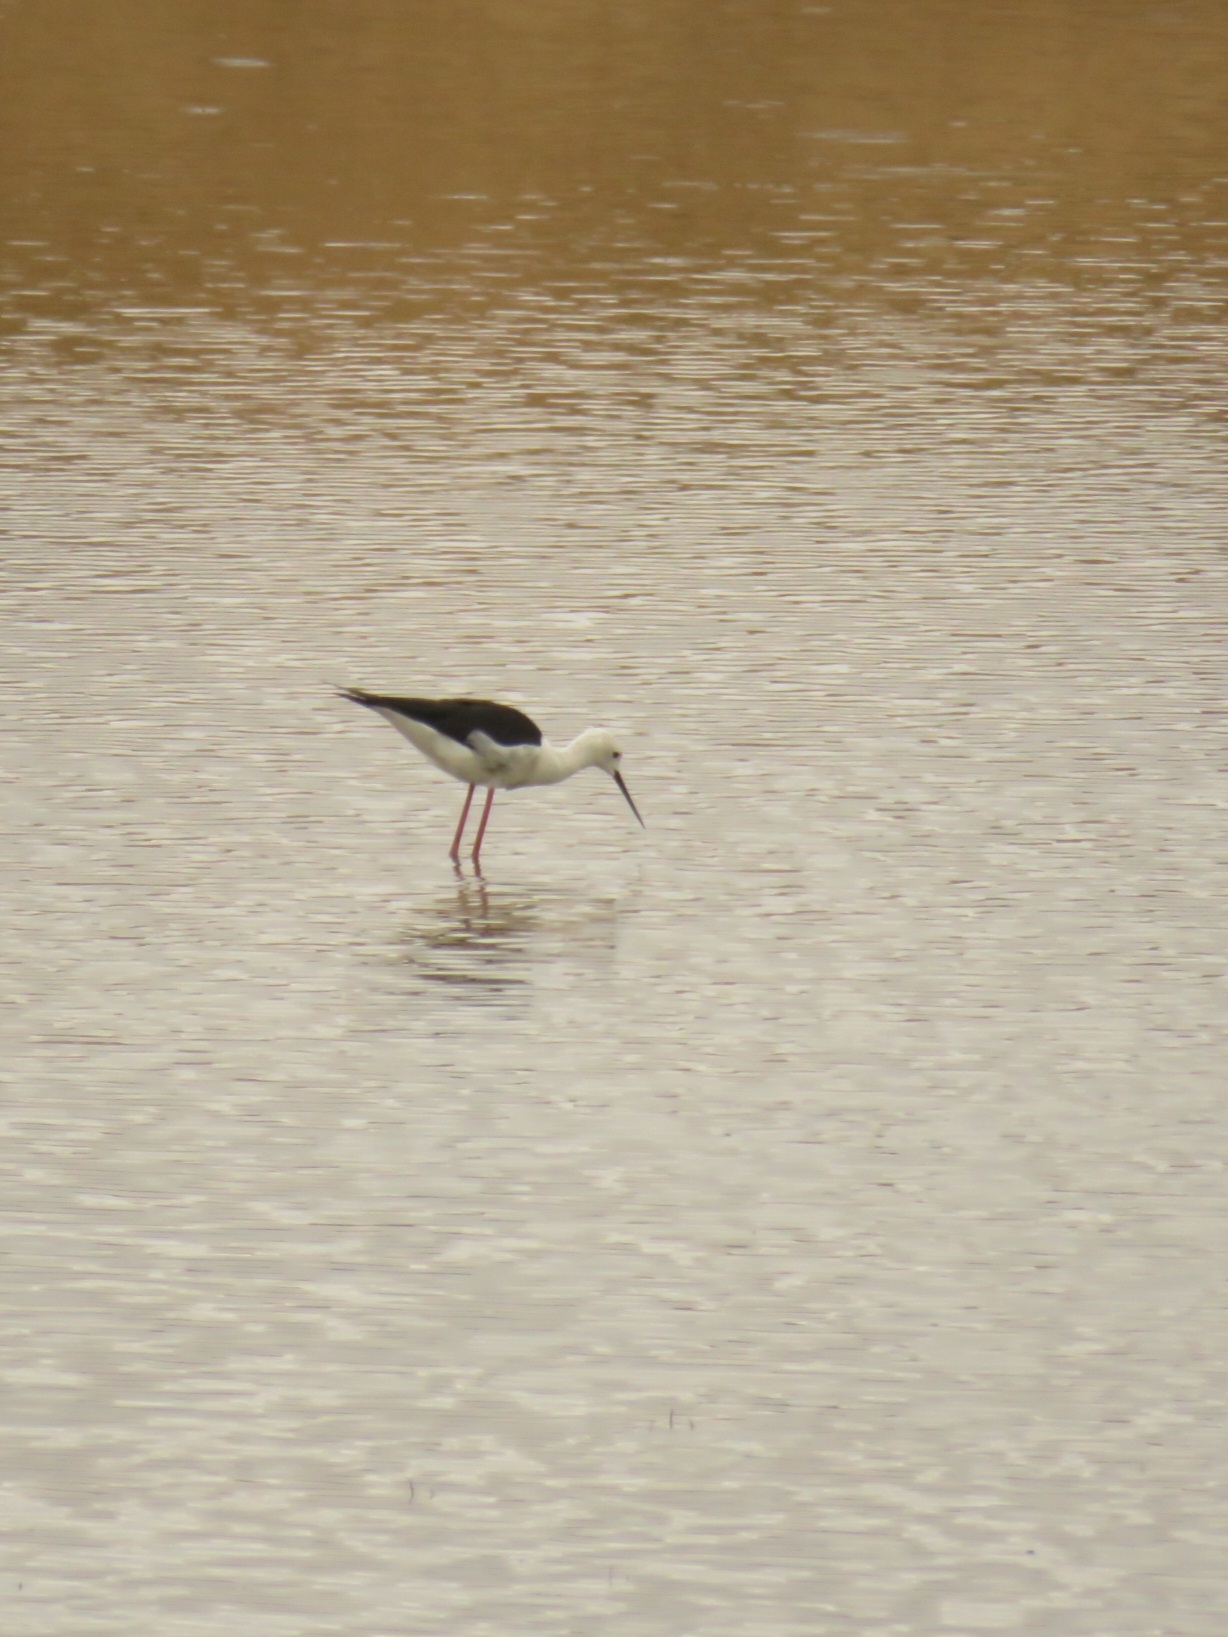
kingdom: Animalia
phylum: Chordata
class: Aves
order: Charadriiformes
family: Recurvirostridae
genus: Himantopus
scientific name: Himantopus himantopus
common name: Black-winged stilt
